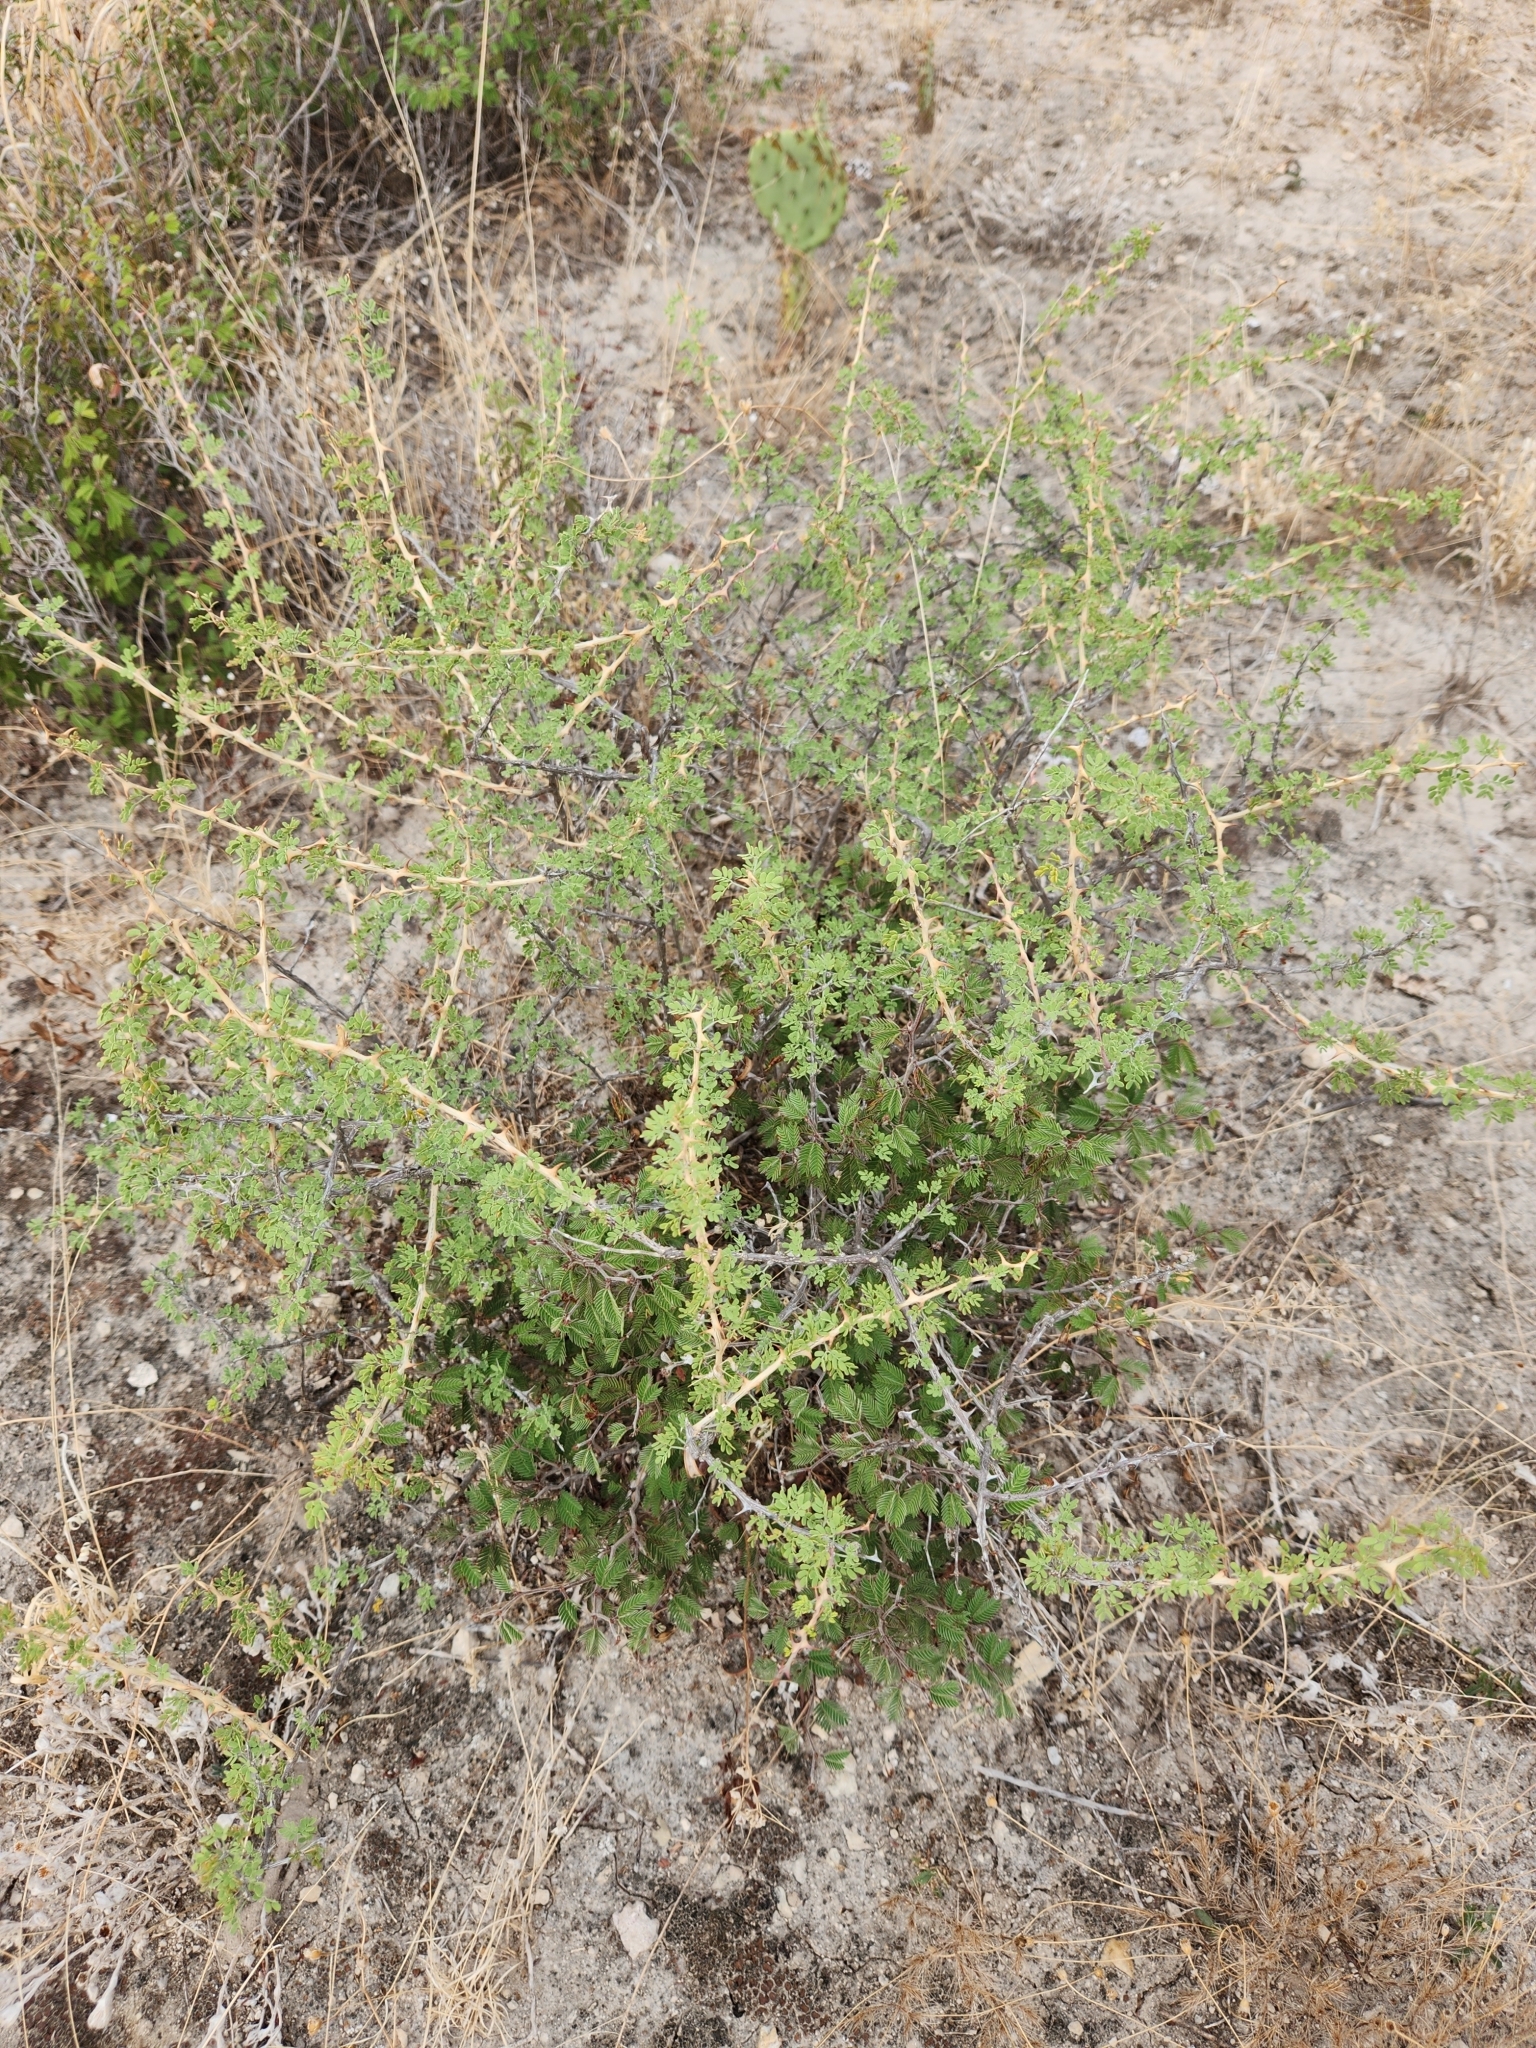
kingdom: Plantae
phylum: Tracheophyta
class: Magnoliopsida
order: Fabales
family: Fabaceae
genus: Senegalia
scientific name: Senegalia greggii
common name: Texas-mimosa
